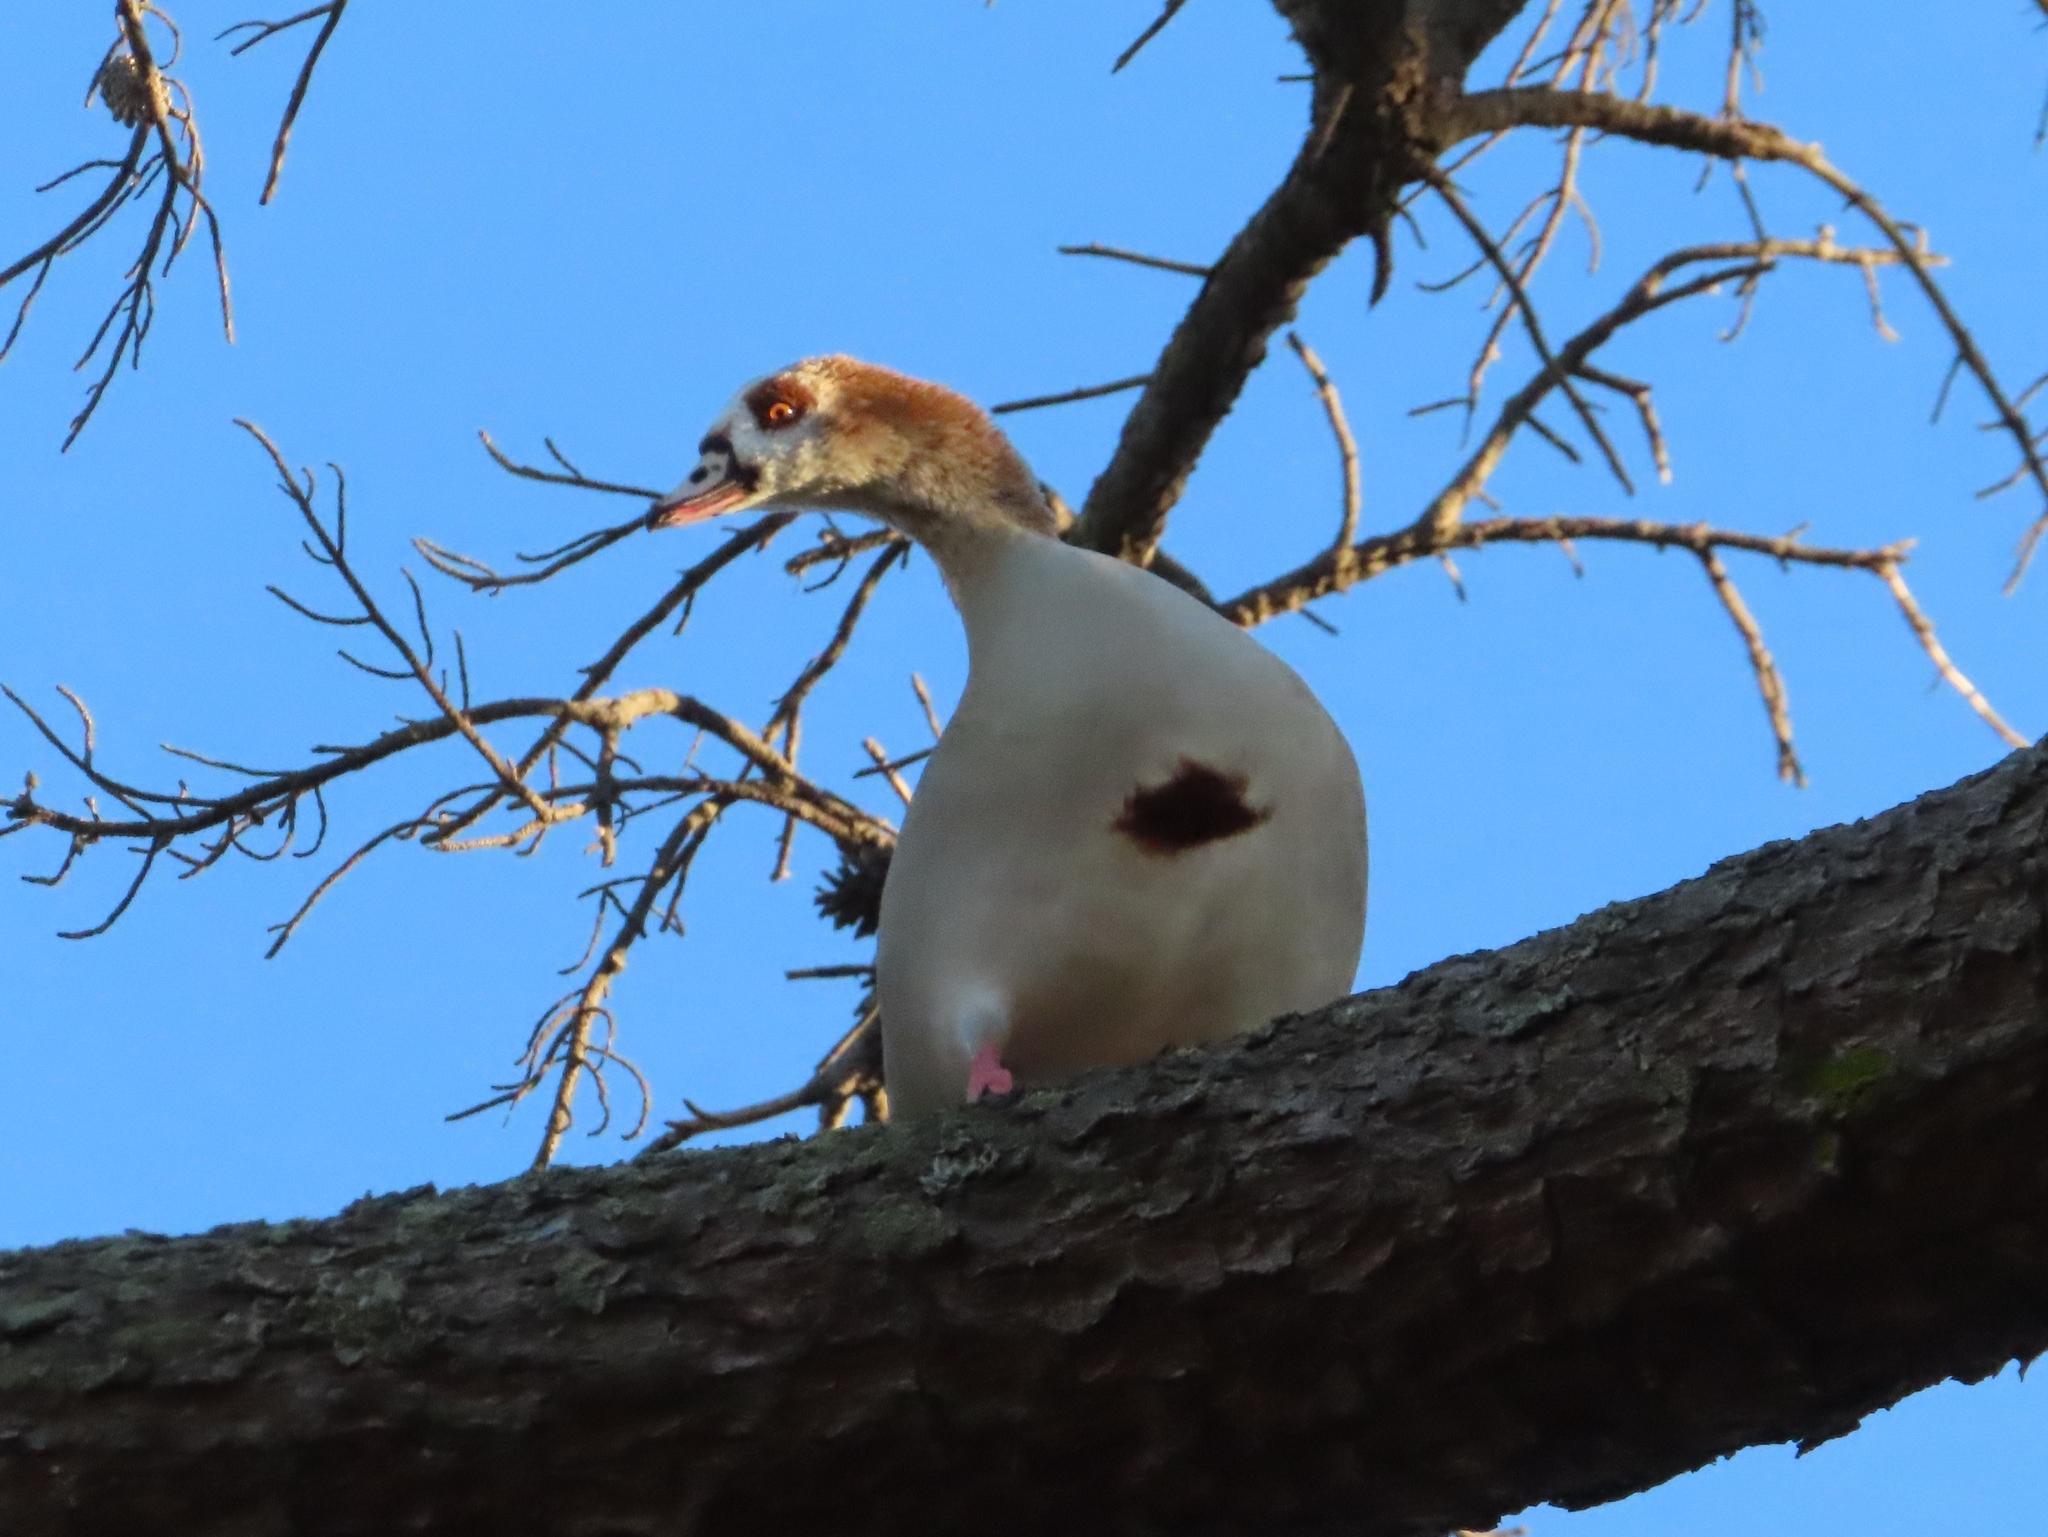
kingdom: Animalia
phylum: Chordata
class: Aves
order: Anseriformes
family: Anatidae
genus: Alopochen
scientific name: Alopochen aegyptiaca
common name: Egyptian goose
